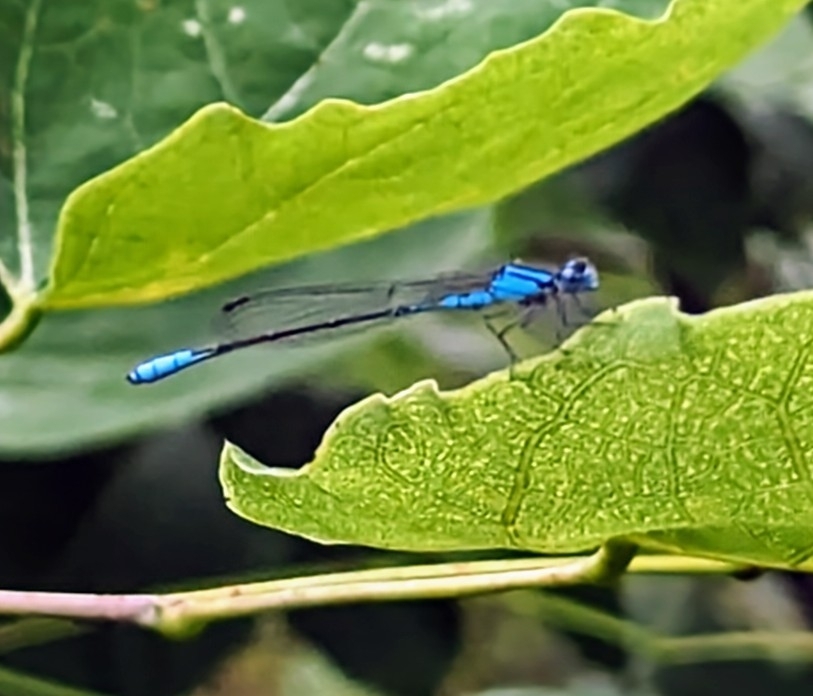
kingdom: Animalia
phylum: Arthropoda
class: Insecta
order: Odonata
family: Coenagrionidae
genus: Enallagma
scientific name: Enallagma aspersum
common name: Azure bluet
